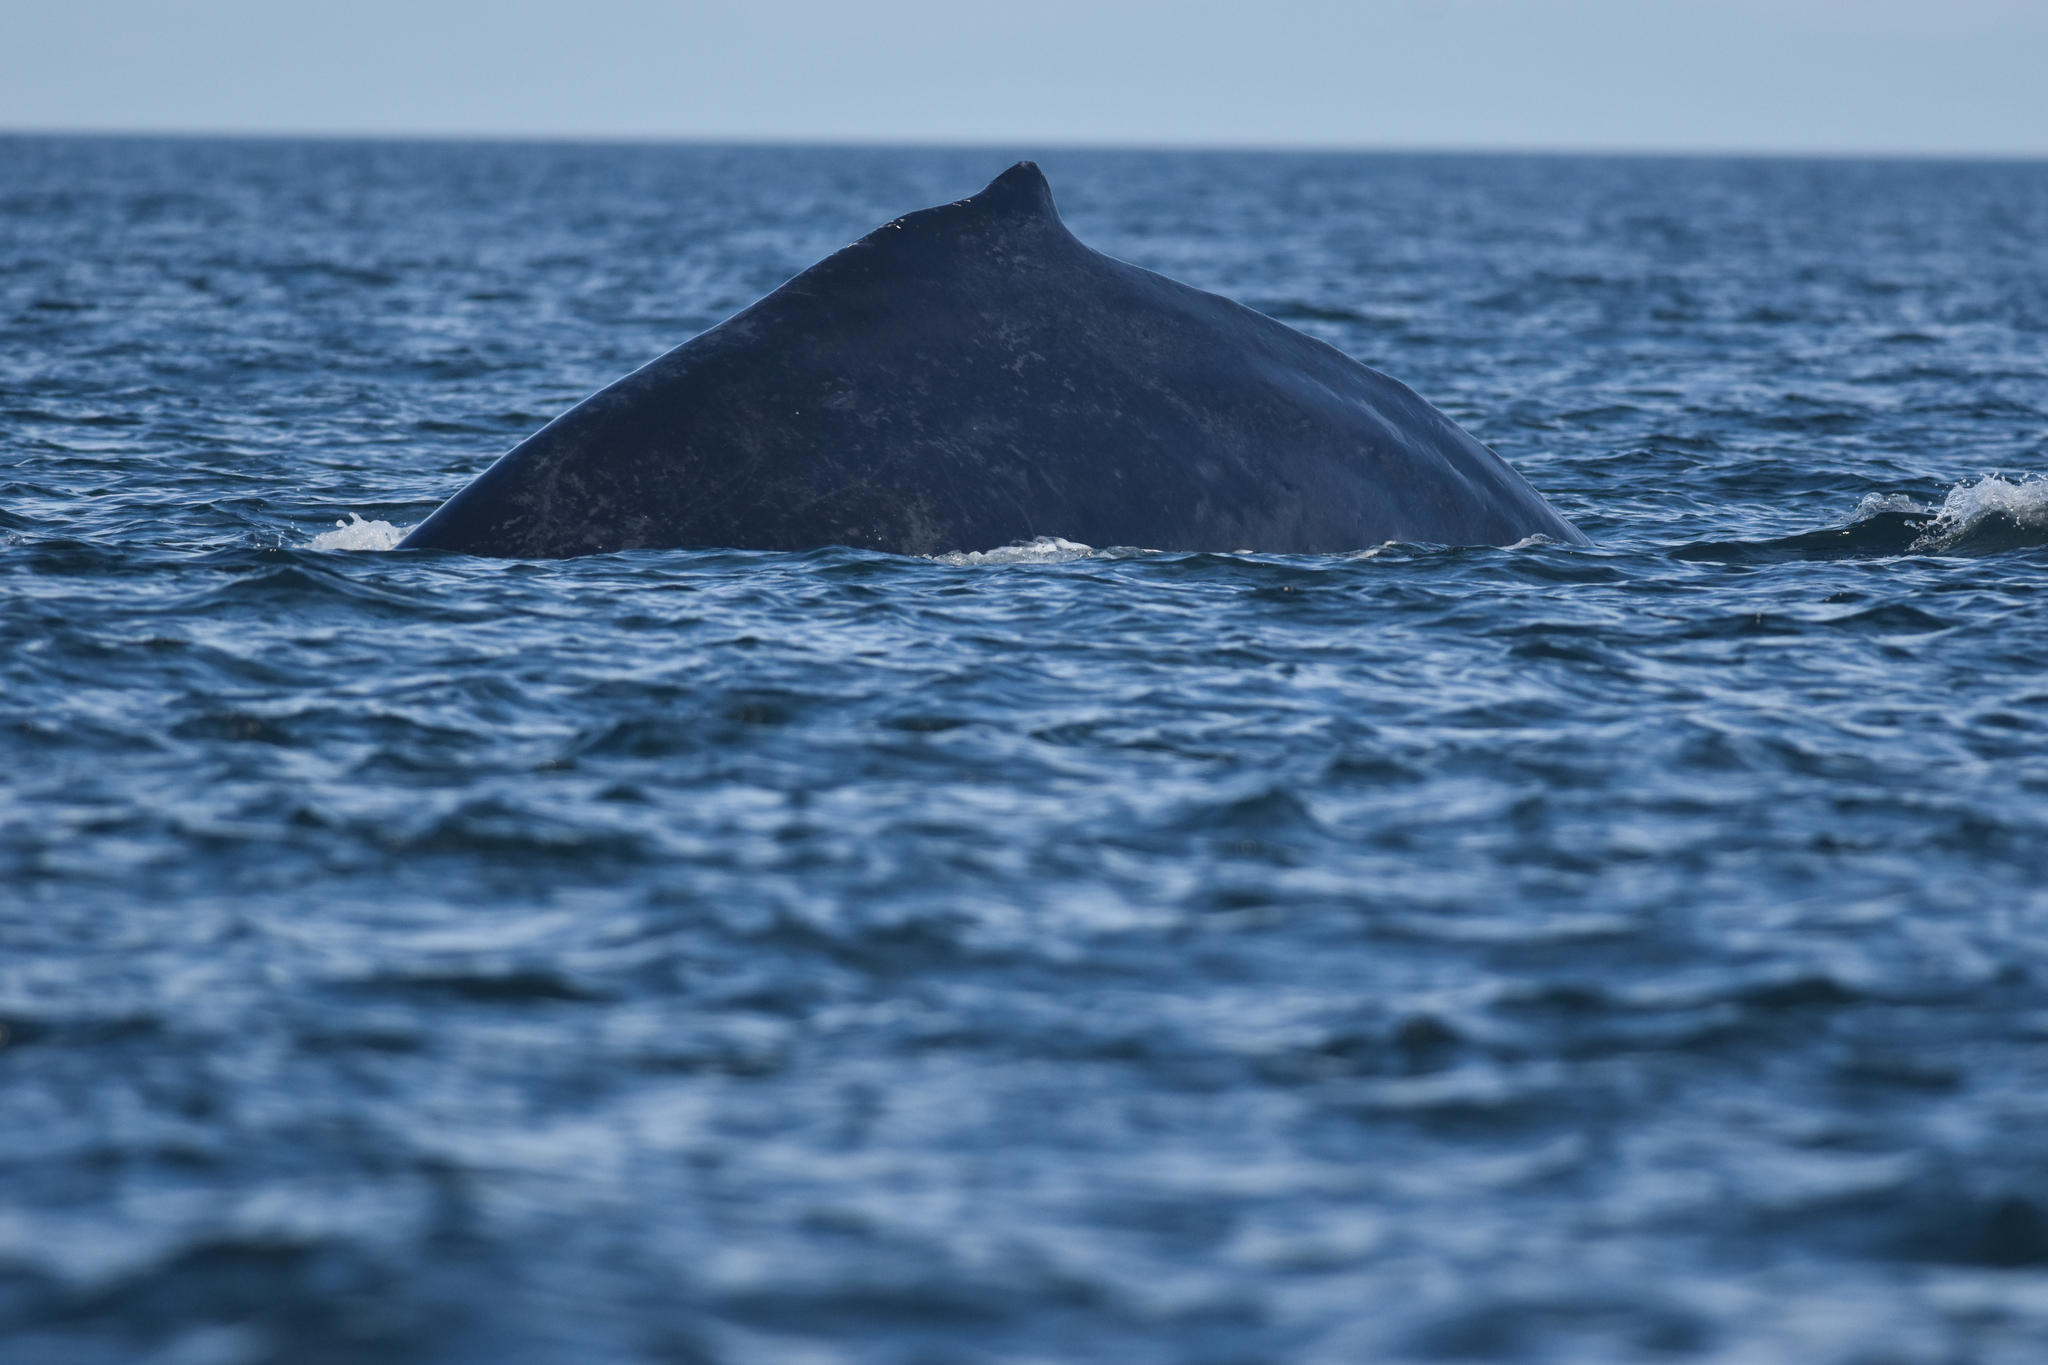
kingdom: Animalia
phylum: Chordata
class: Mammalia
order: Cetacea
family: Balaenopteridae
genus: Megaptera
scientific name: Megaptera novaeangliae
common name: Humpback whale
